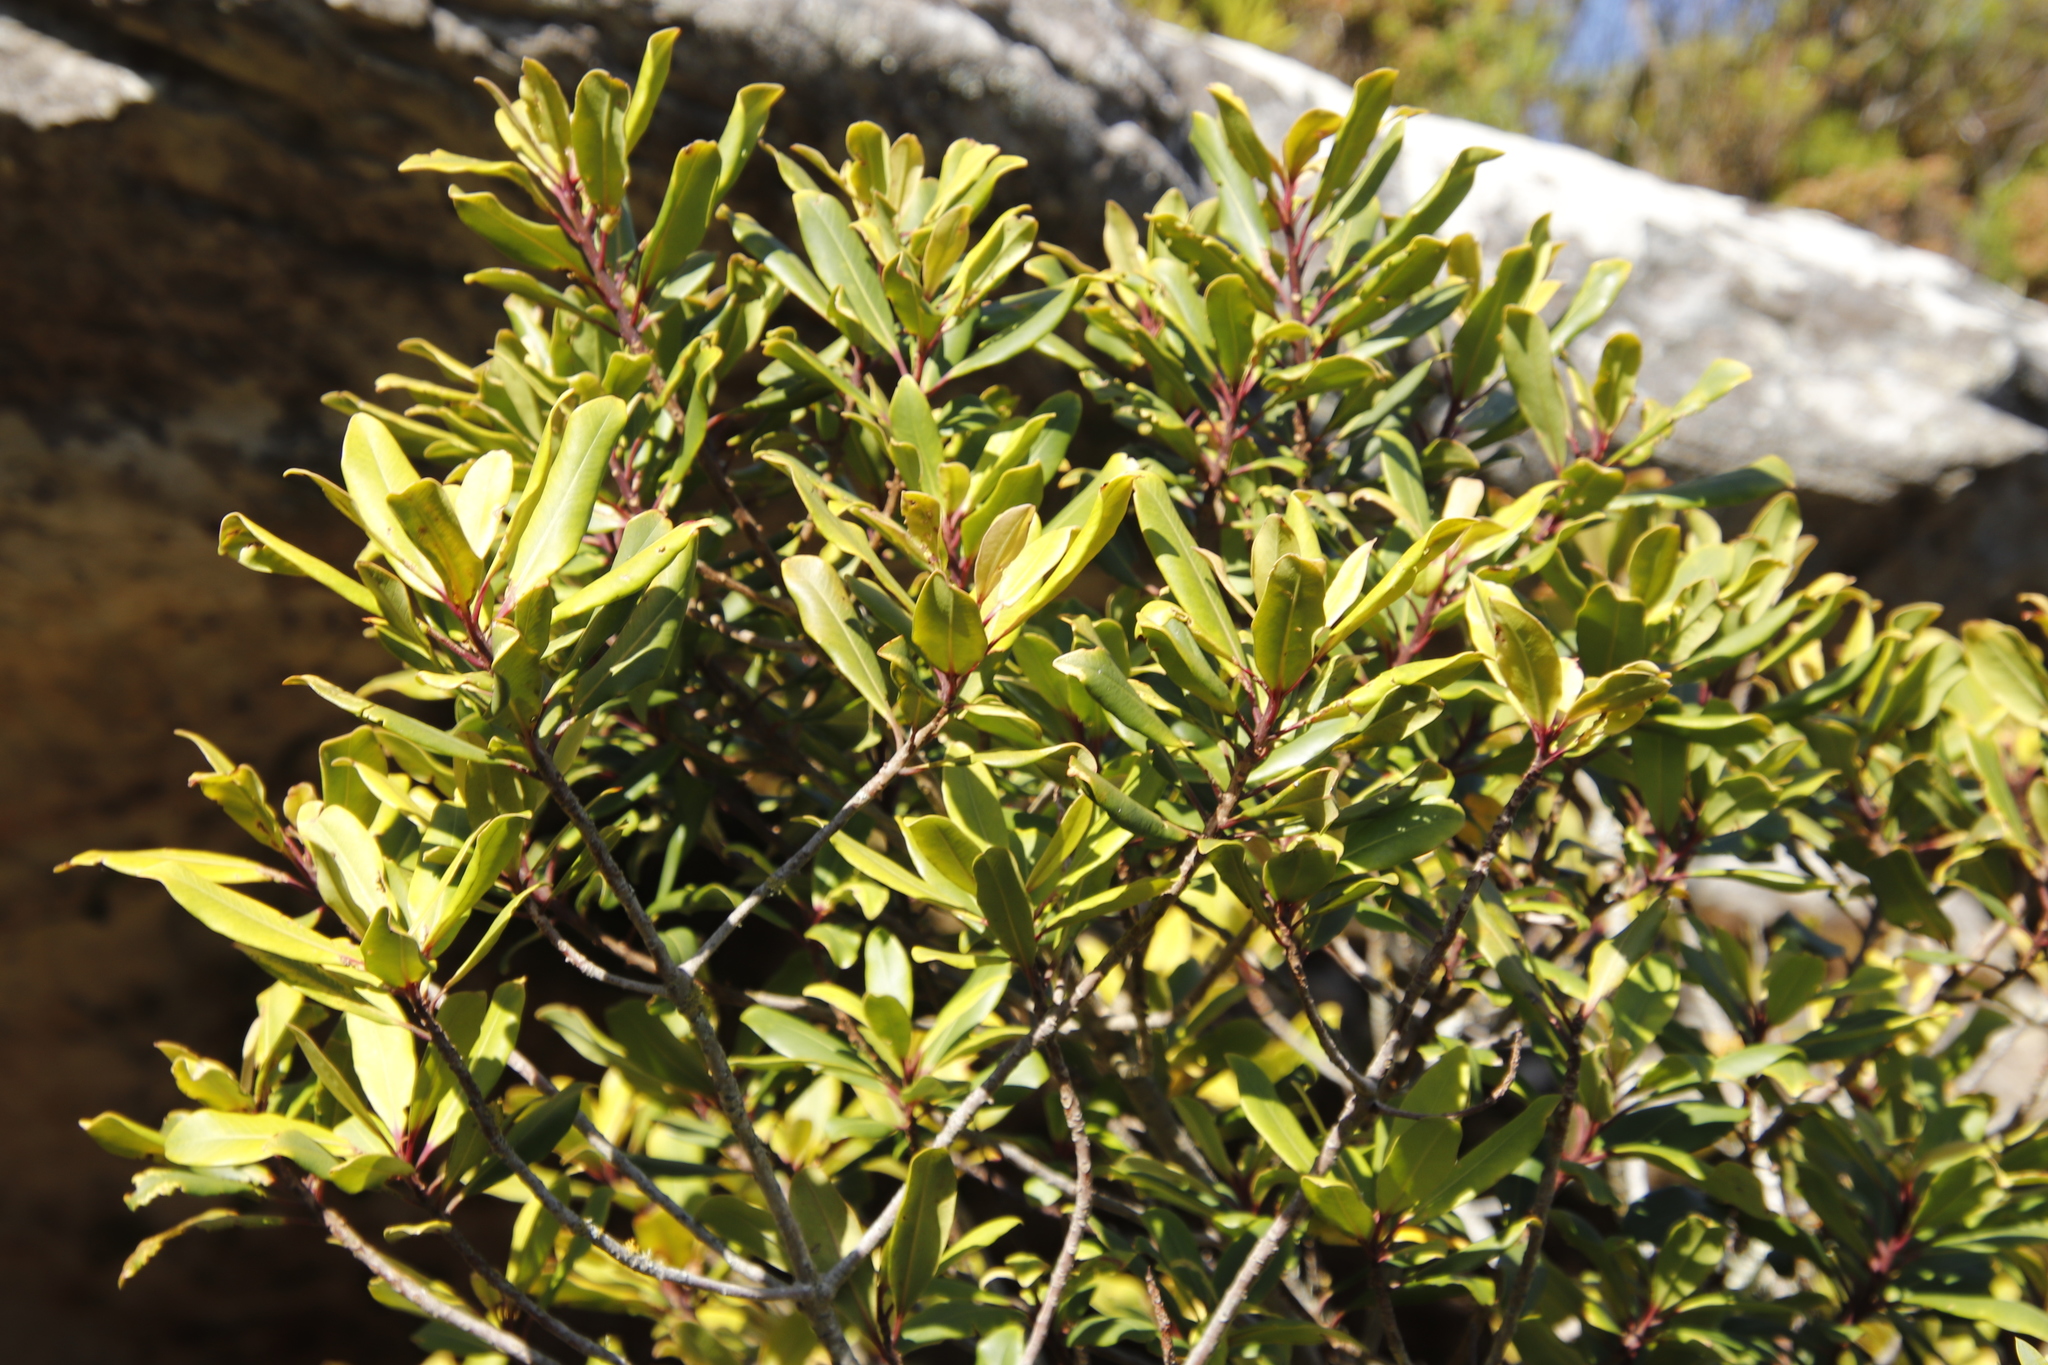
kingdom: Plantae
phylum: Tracheophyta
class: Magnoliopsida
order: Ericales
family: Primulaceae
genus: Myrsine
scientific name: Myrsine melanophloeos
